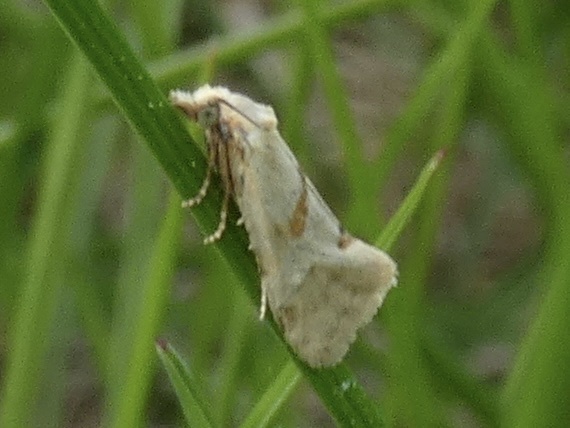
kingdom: Animalia
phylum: Arthropoda
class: Insecta
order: Lepidoptera
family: Tortricidae
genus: Aethes
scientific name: Aethes smeathmanniana
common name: Yarrow conch
